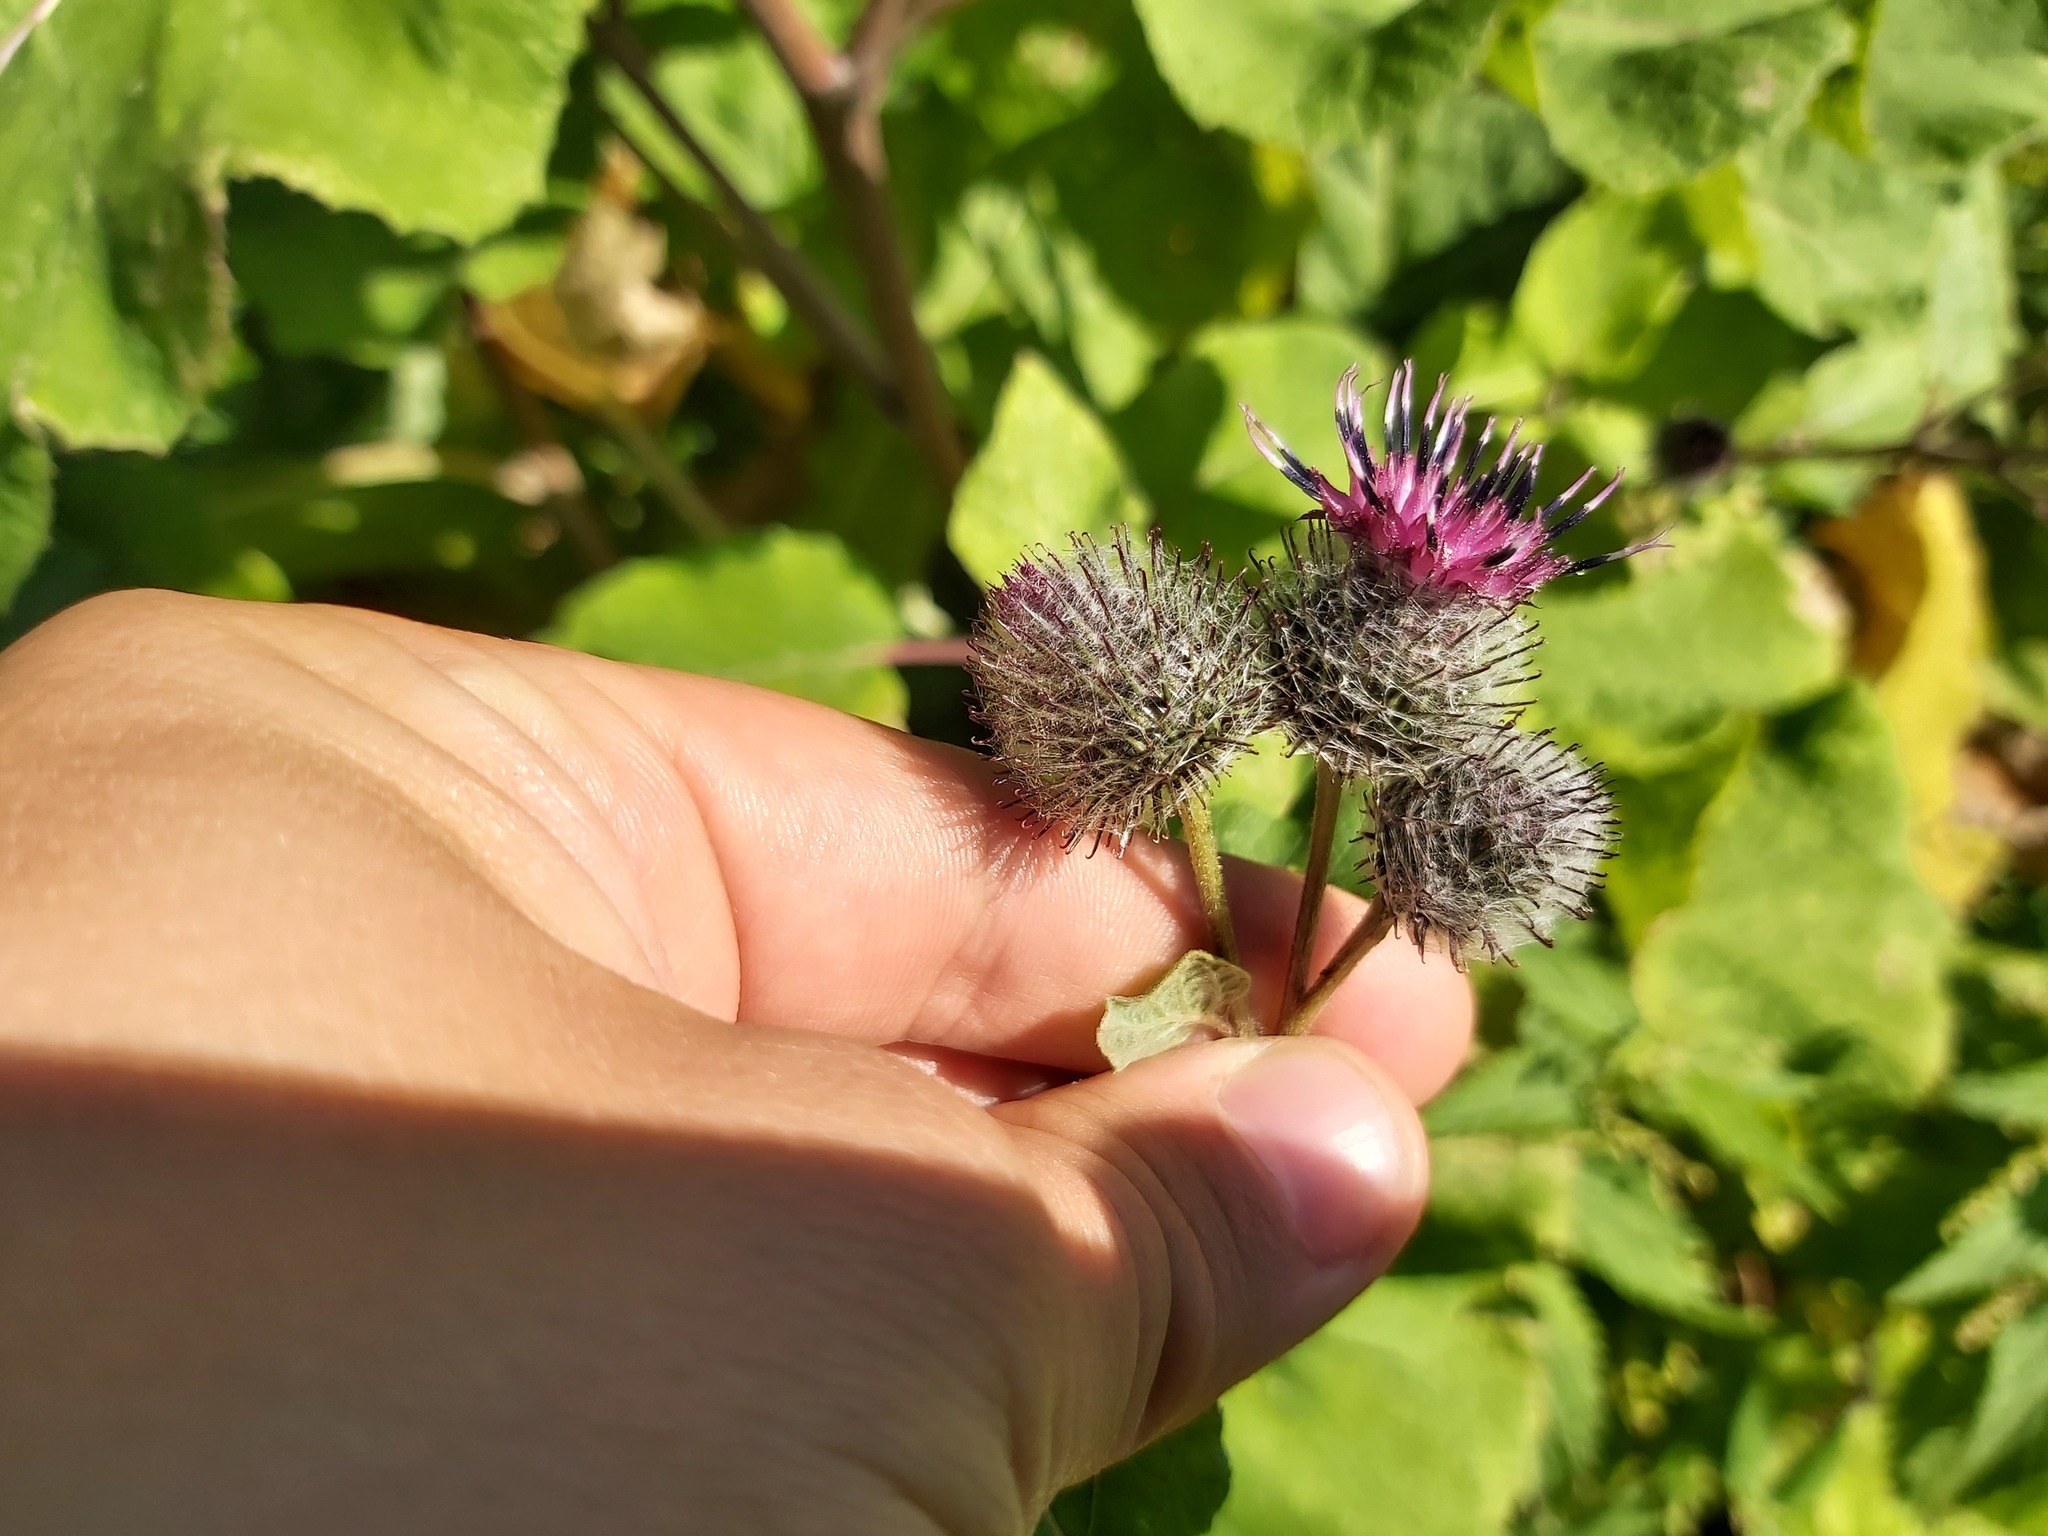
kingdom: Plantae
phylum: Tracheophyta
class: Magnoliopsida
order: Asterales
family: Asteraceae
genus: Arctium
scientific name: Arctium tomentosum
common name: Woolly burdock
